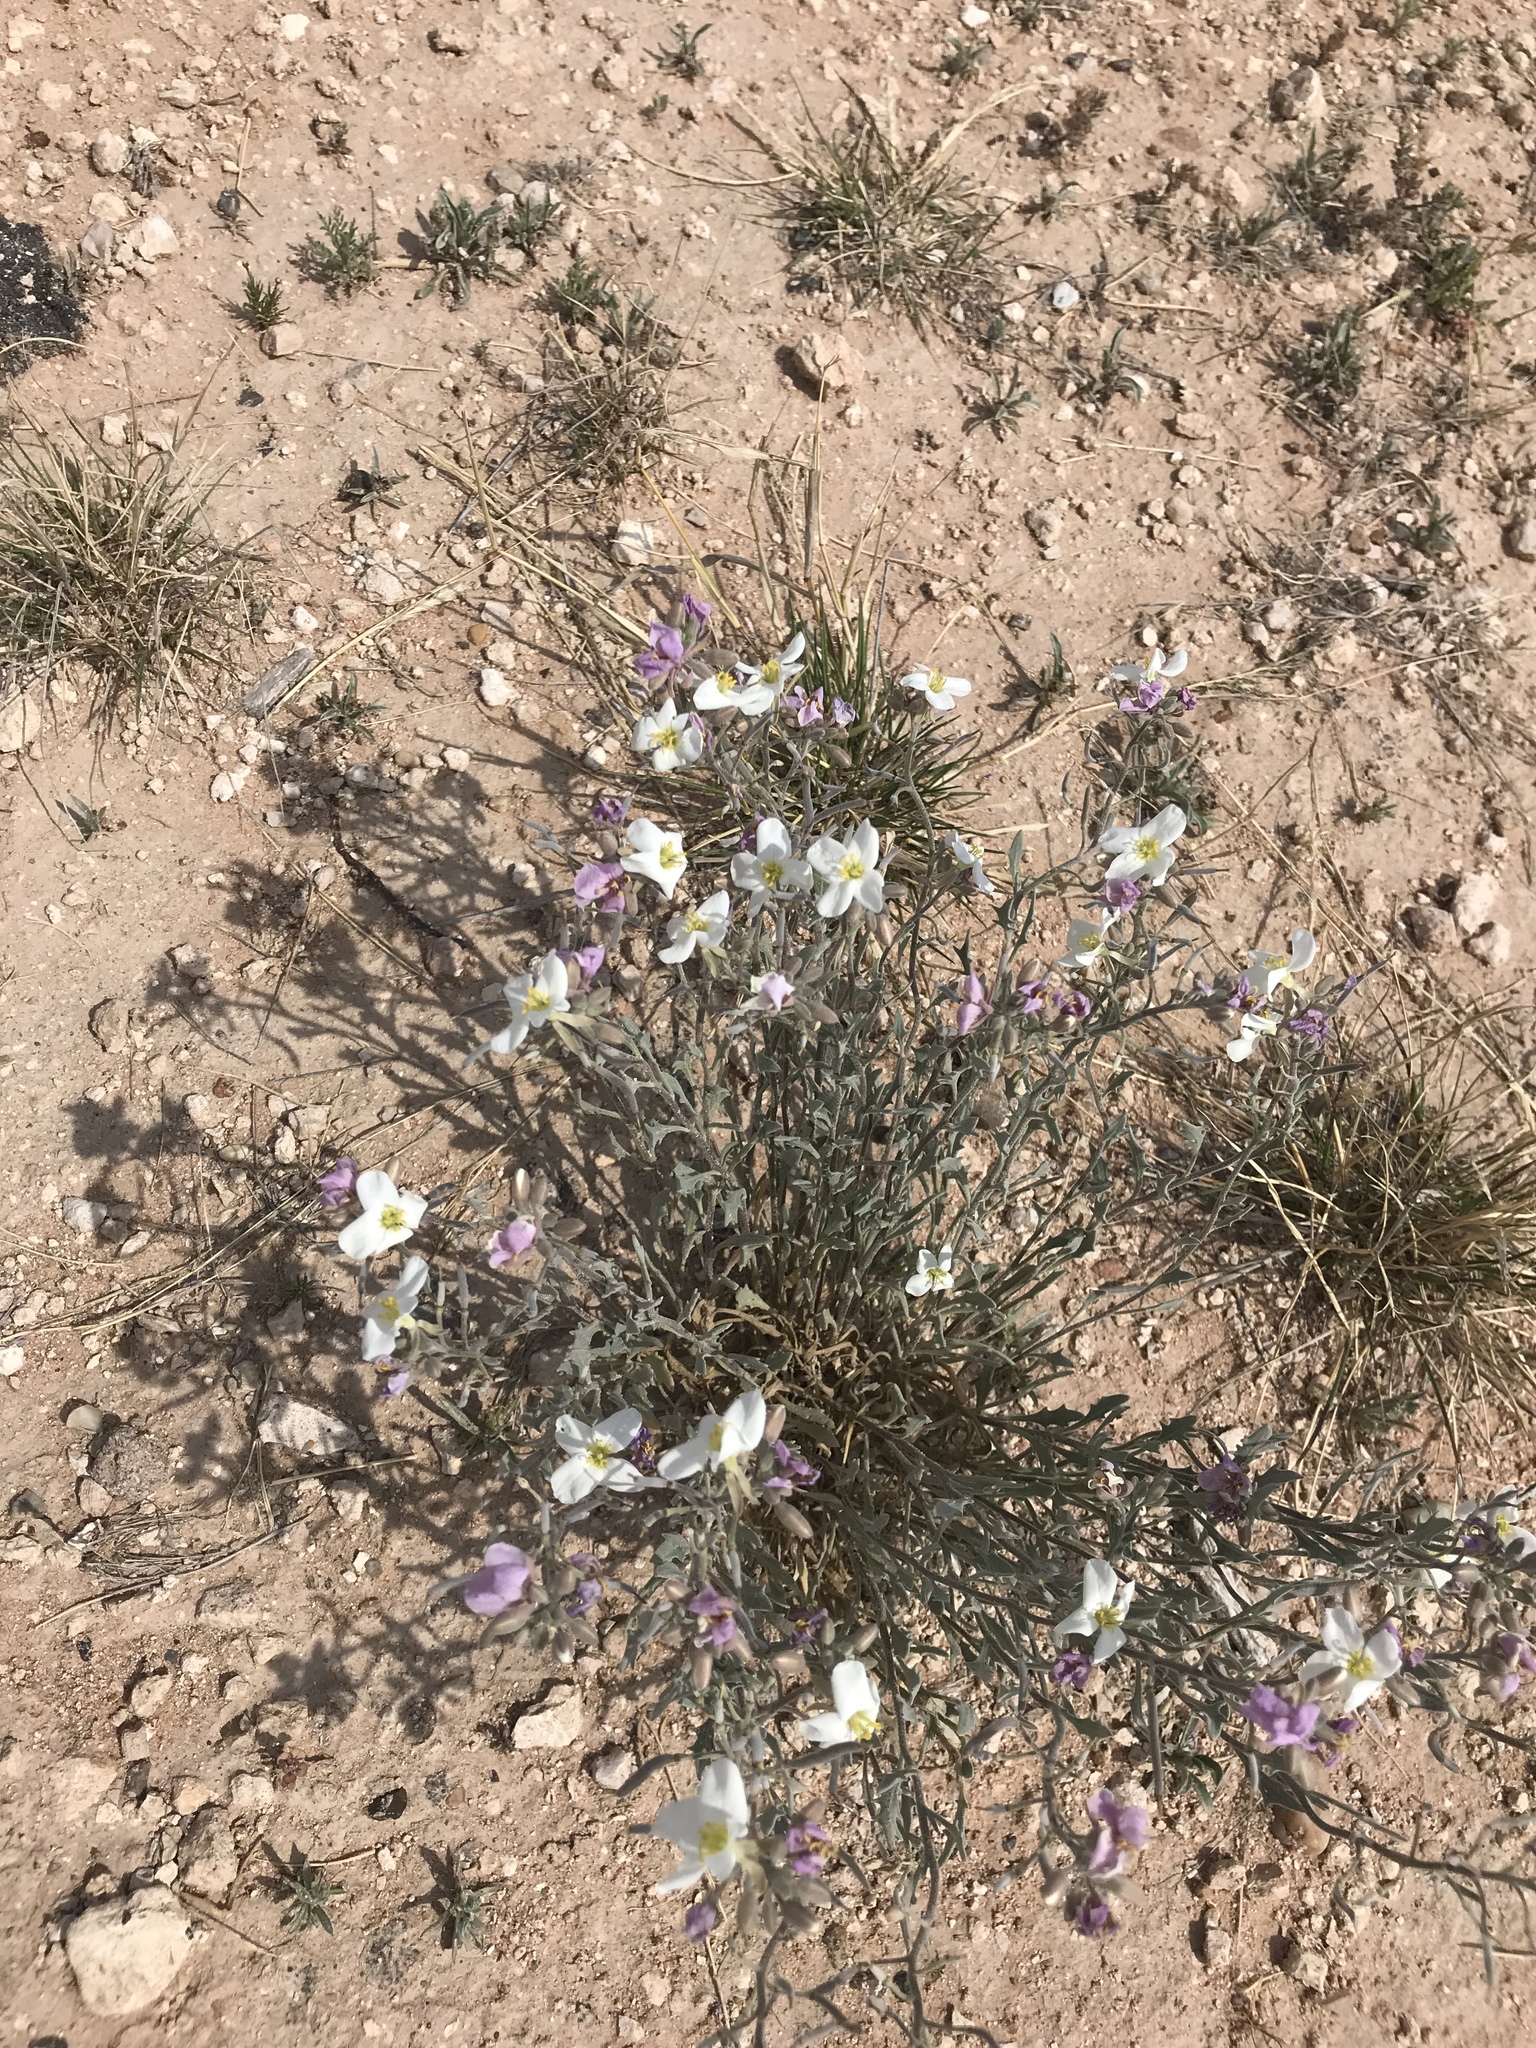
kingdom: Plantae
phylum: Tracheophyta
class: Magnoliopsida
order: Brassicales
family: Brassicaceae
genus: Nerisyrenia
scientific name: Nerisyrenia camporum
